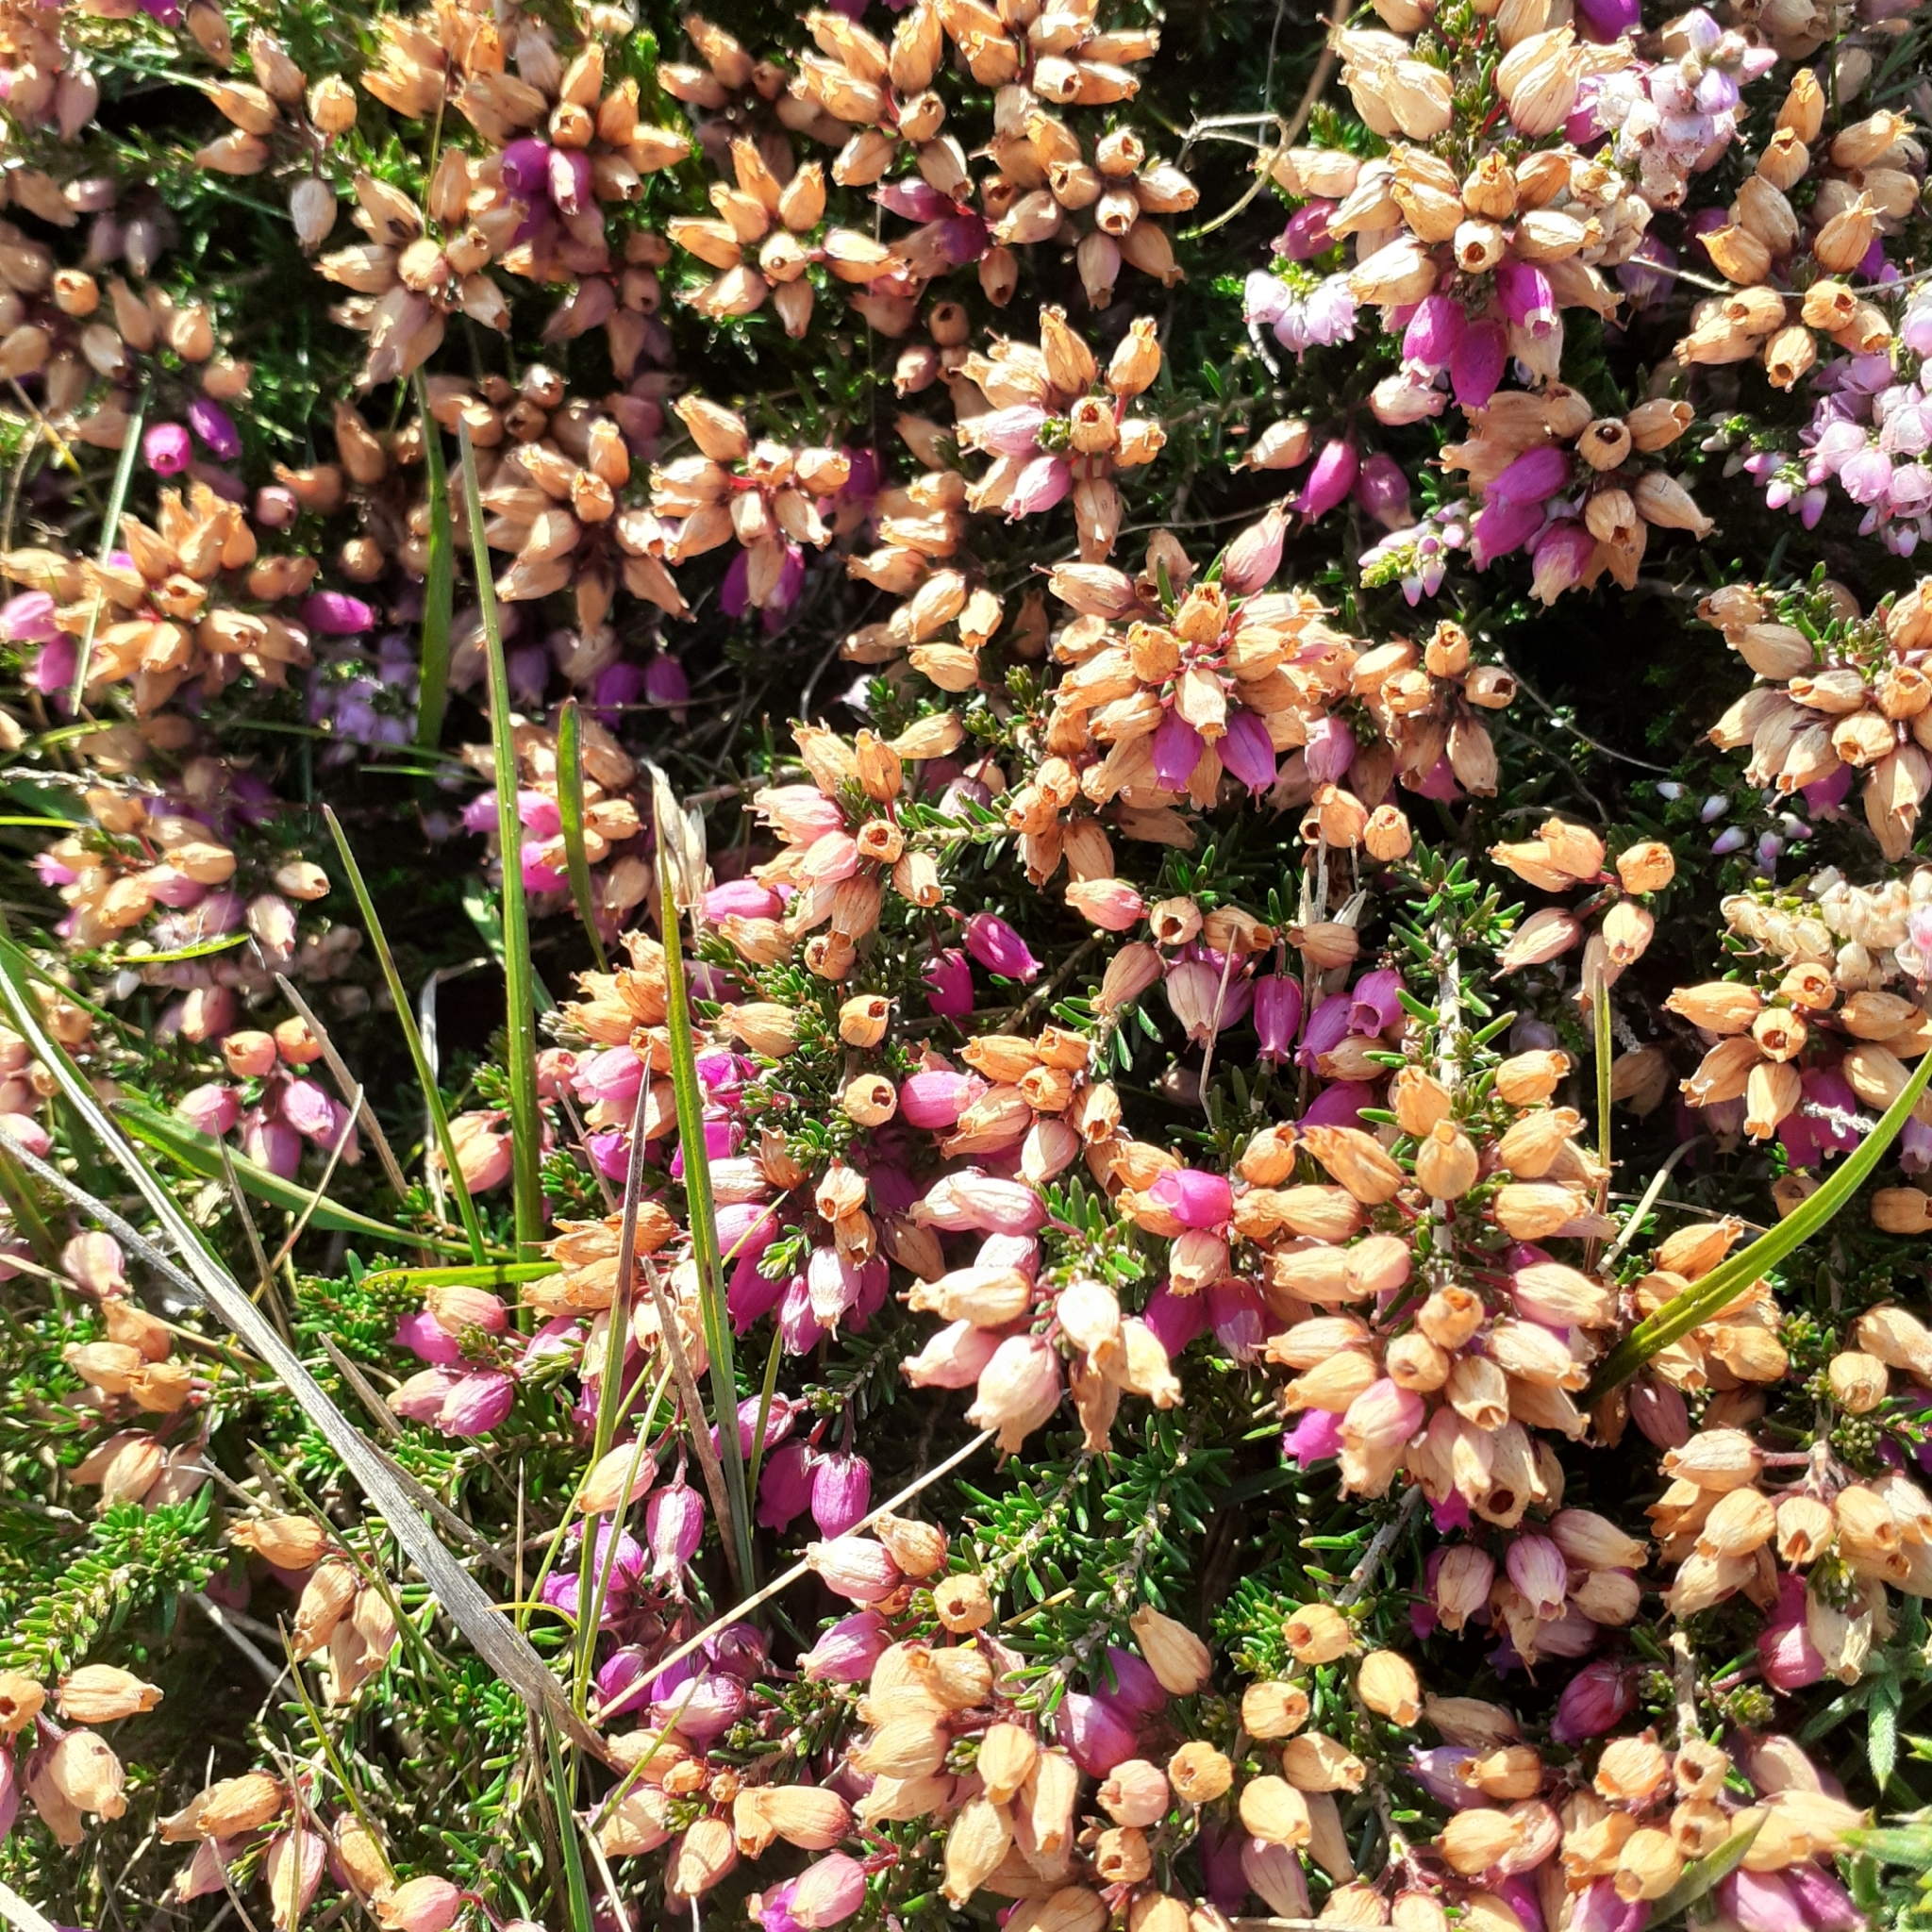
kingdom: Plantae
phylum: Tracheophyta
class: Magnoliopsida
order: Ericales
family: Ericaceae
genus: Erica
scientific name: Erica cinerea
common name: Bell heather
